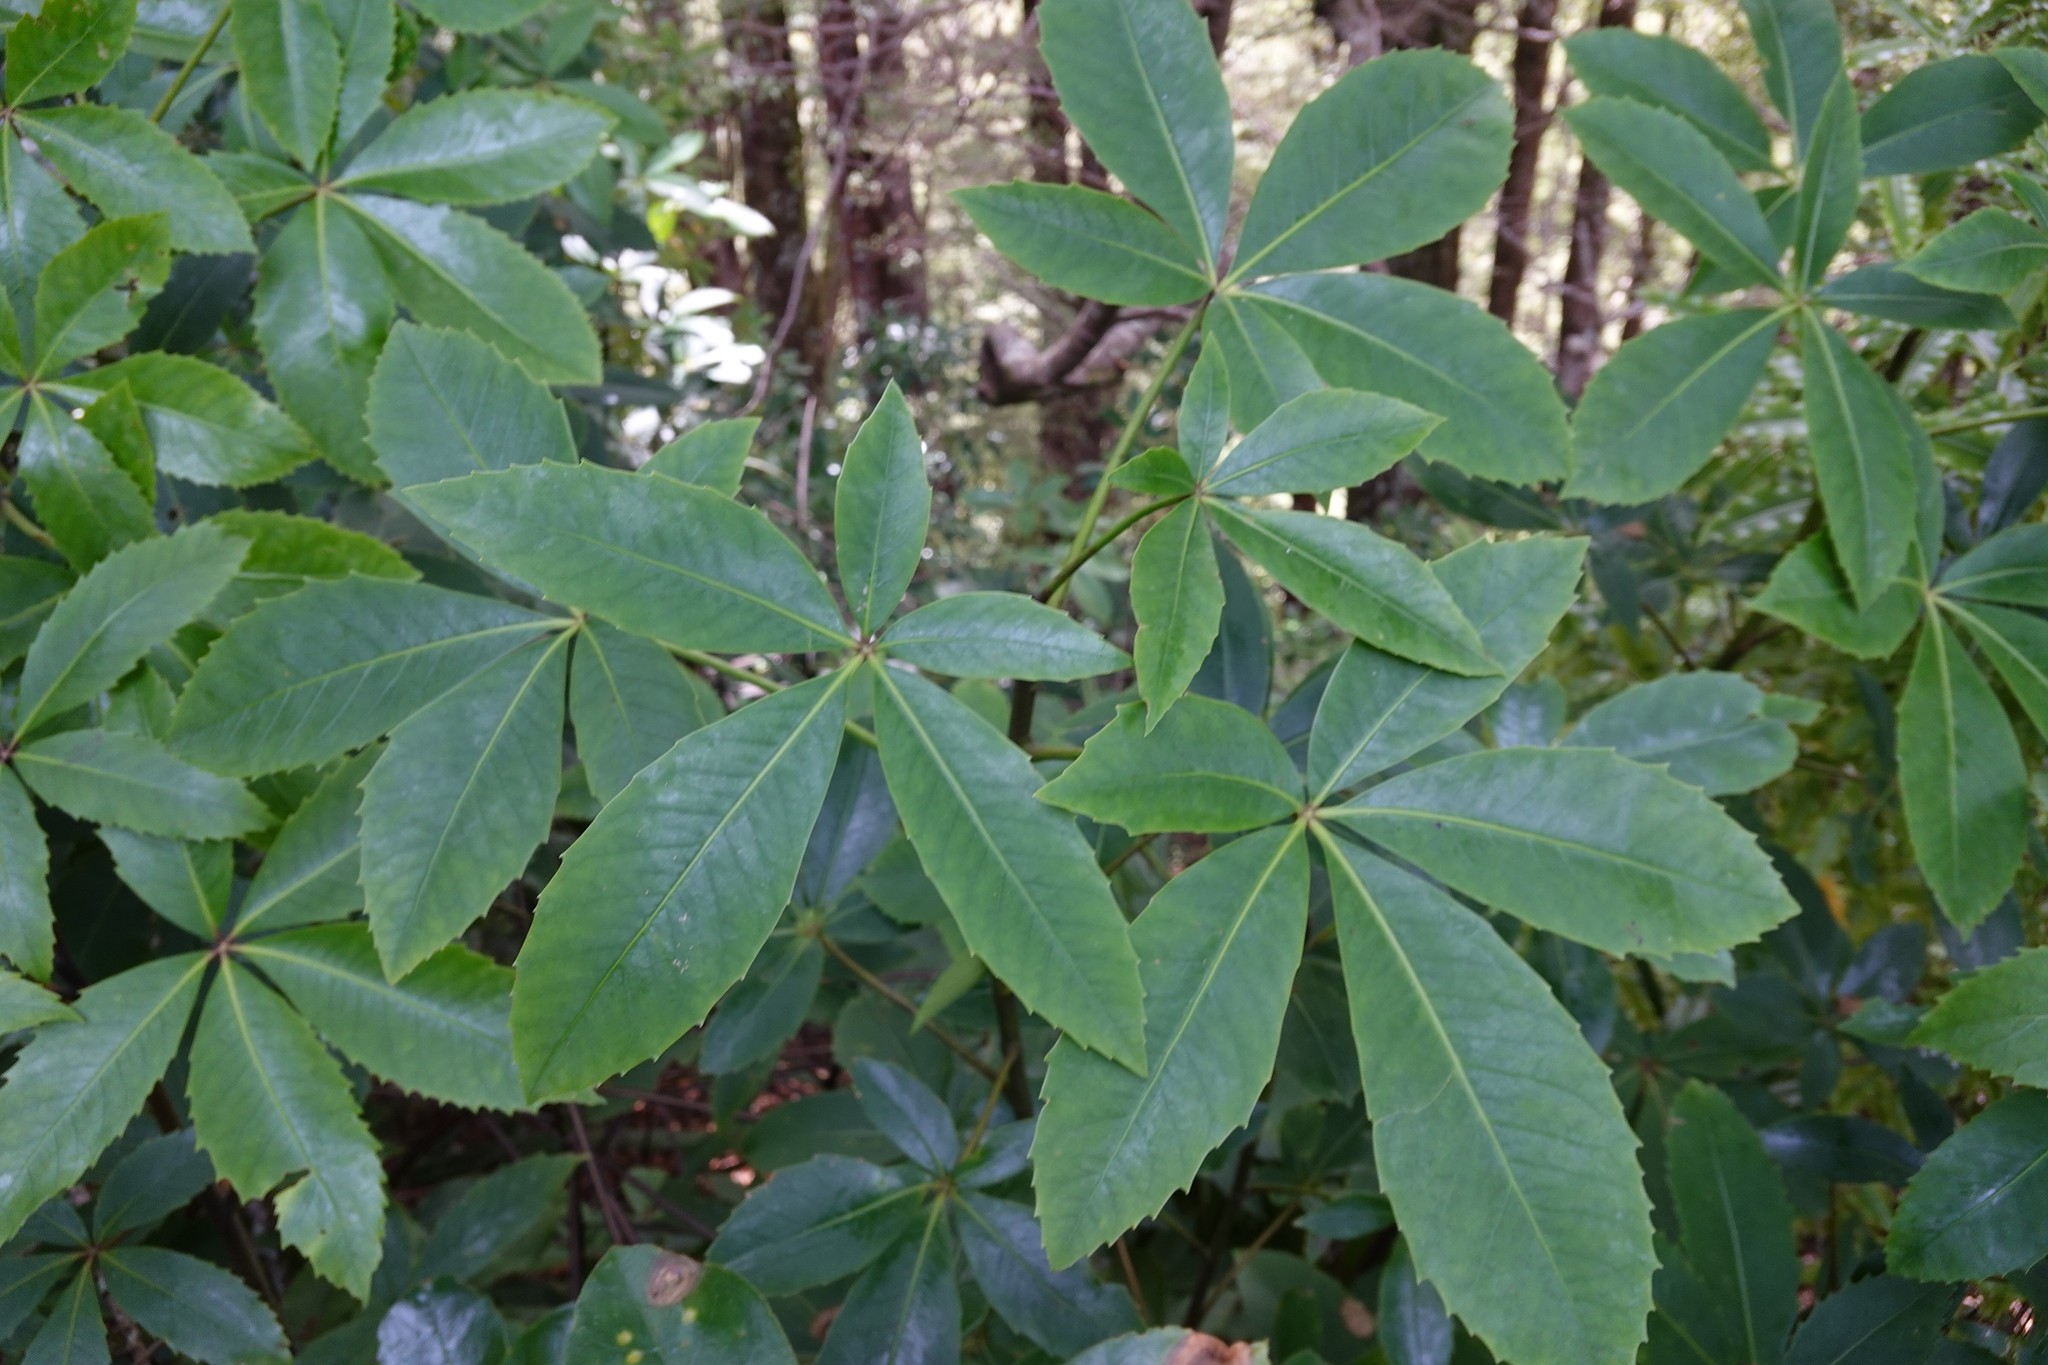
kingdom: Plantae
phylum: Tracheophyta
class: Magnoliopsida
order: Apiales
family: Araliaceae
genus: Neopanax
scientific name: Neopanax colensoi
